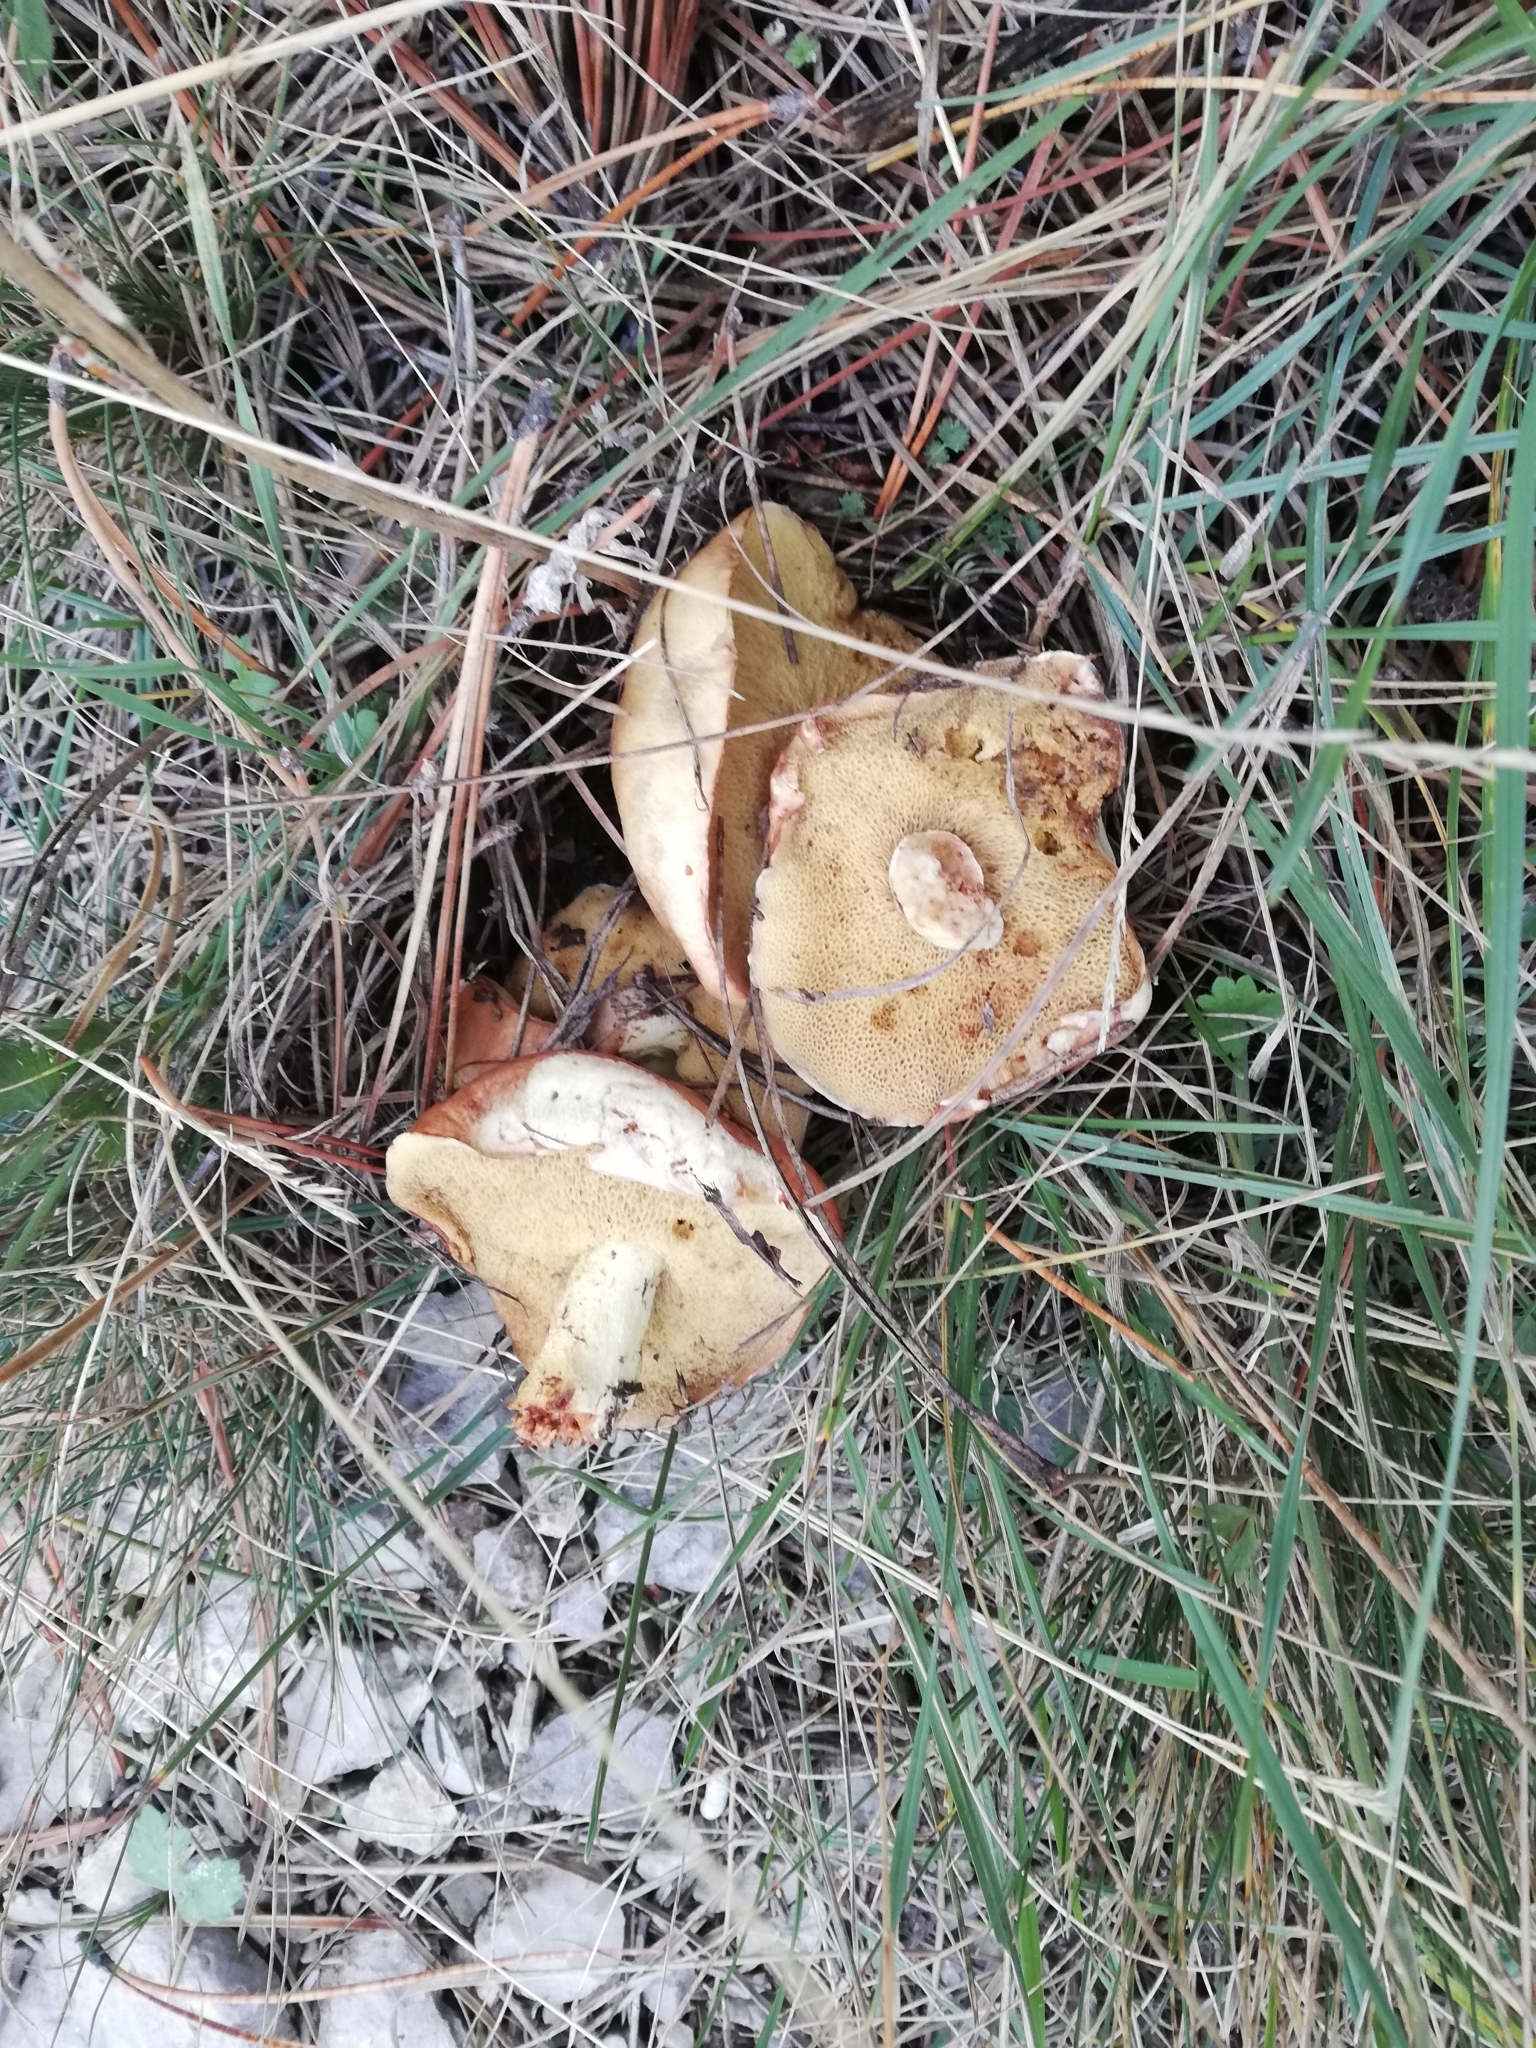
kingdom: Fungi
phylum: Basidiomycota
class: Agaricomycetes
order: Boletales
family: Suillaceae
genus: Suillus
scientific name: Suillus granulatus
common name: Weeping bolete
